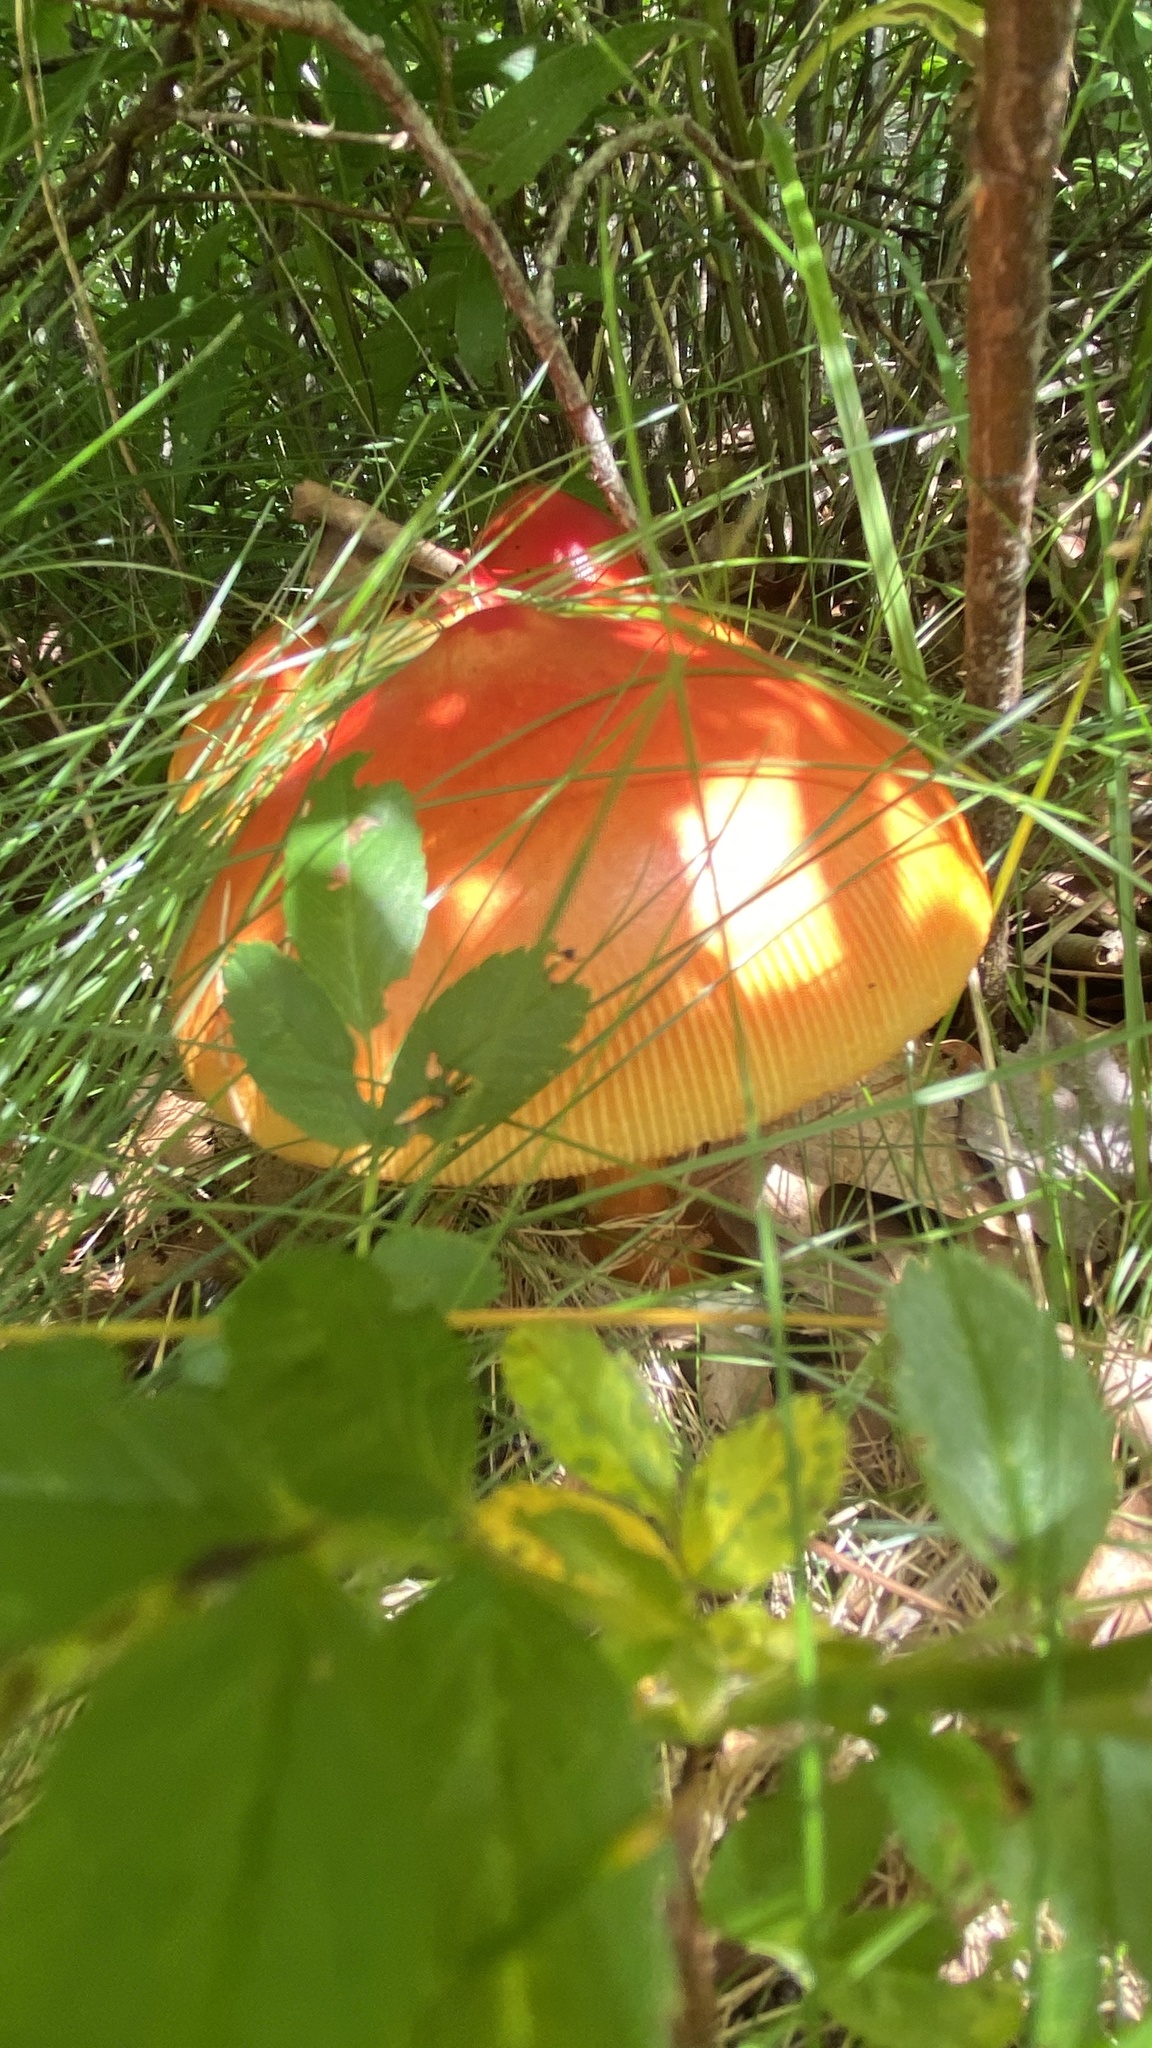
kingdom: Fungi
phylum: Basidiomycota
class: Agaricomycetes
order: Agaricales
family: Amanitaceae
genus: Amanita
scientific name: Amanita jacksonii
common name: Jackson's slender caesar
